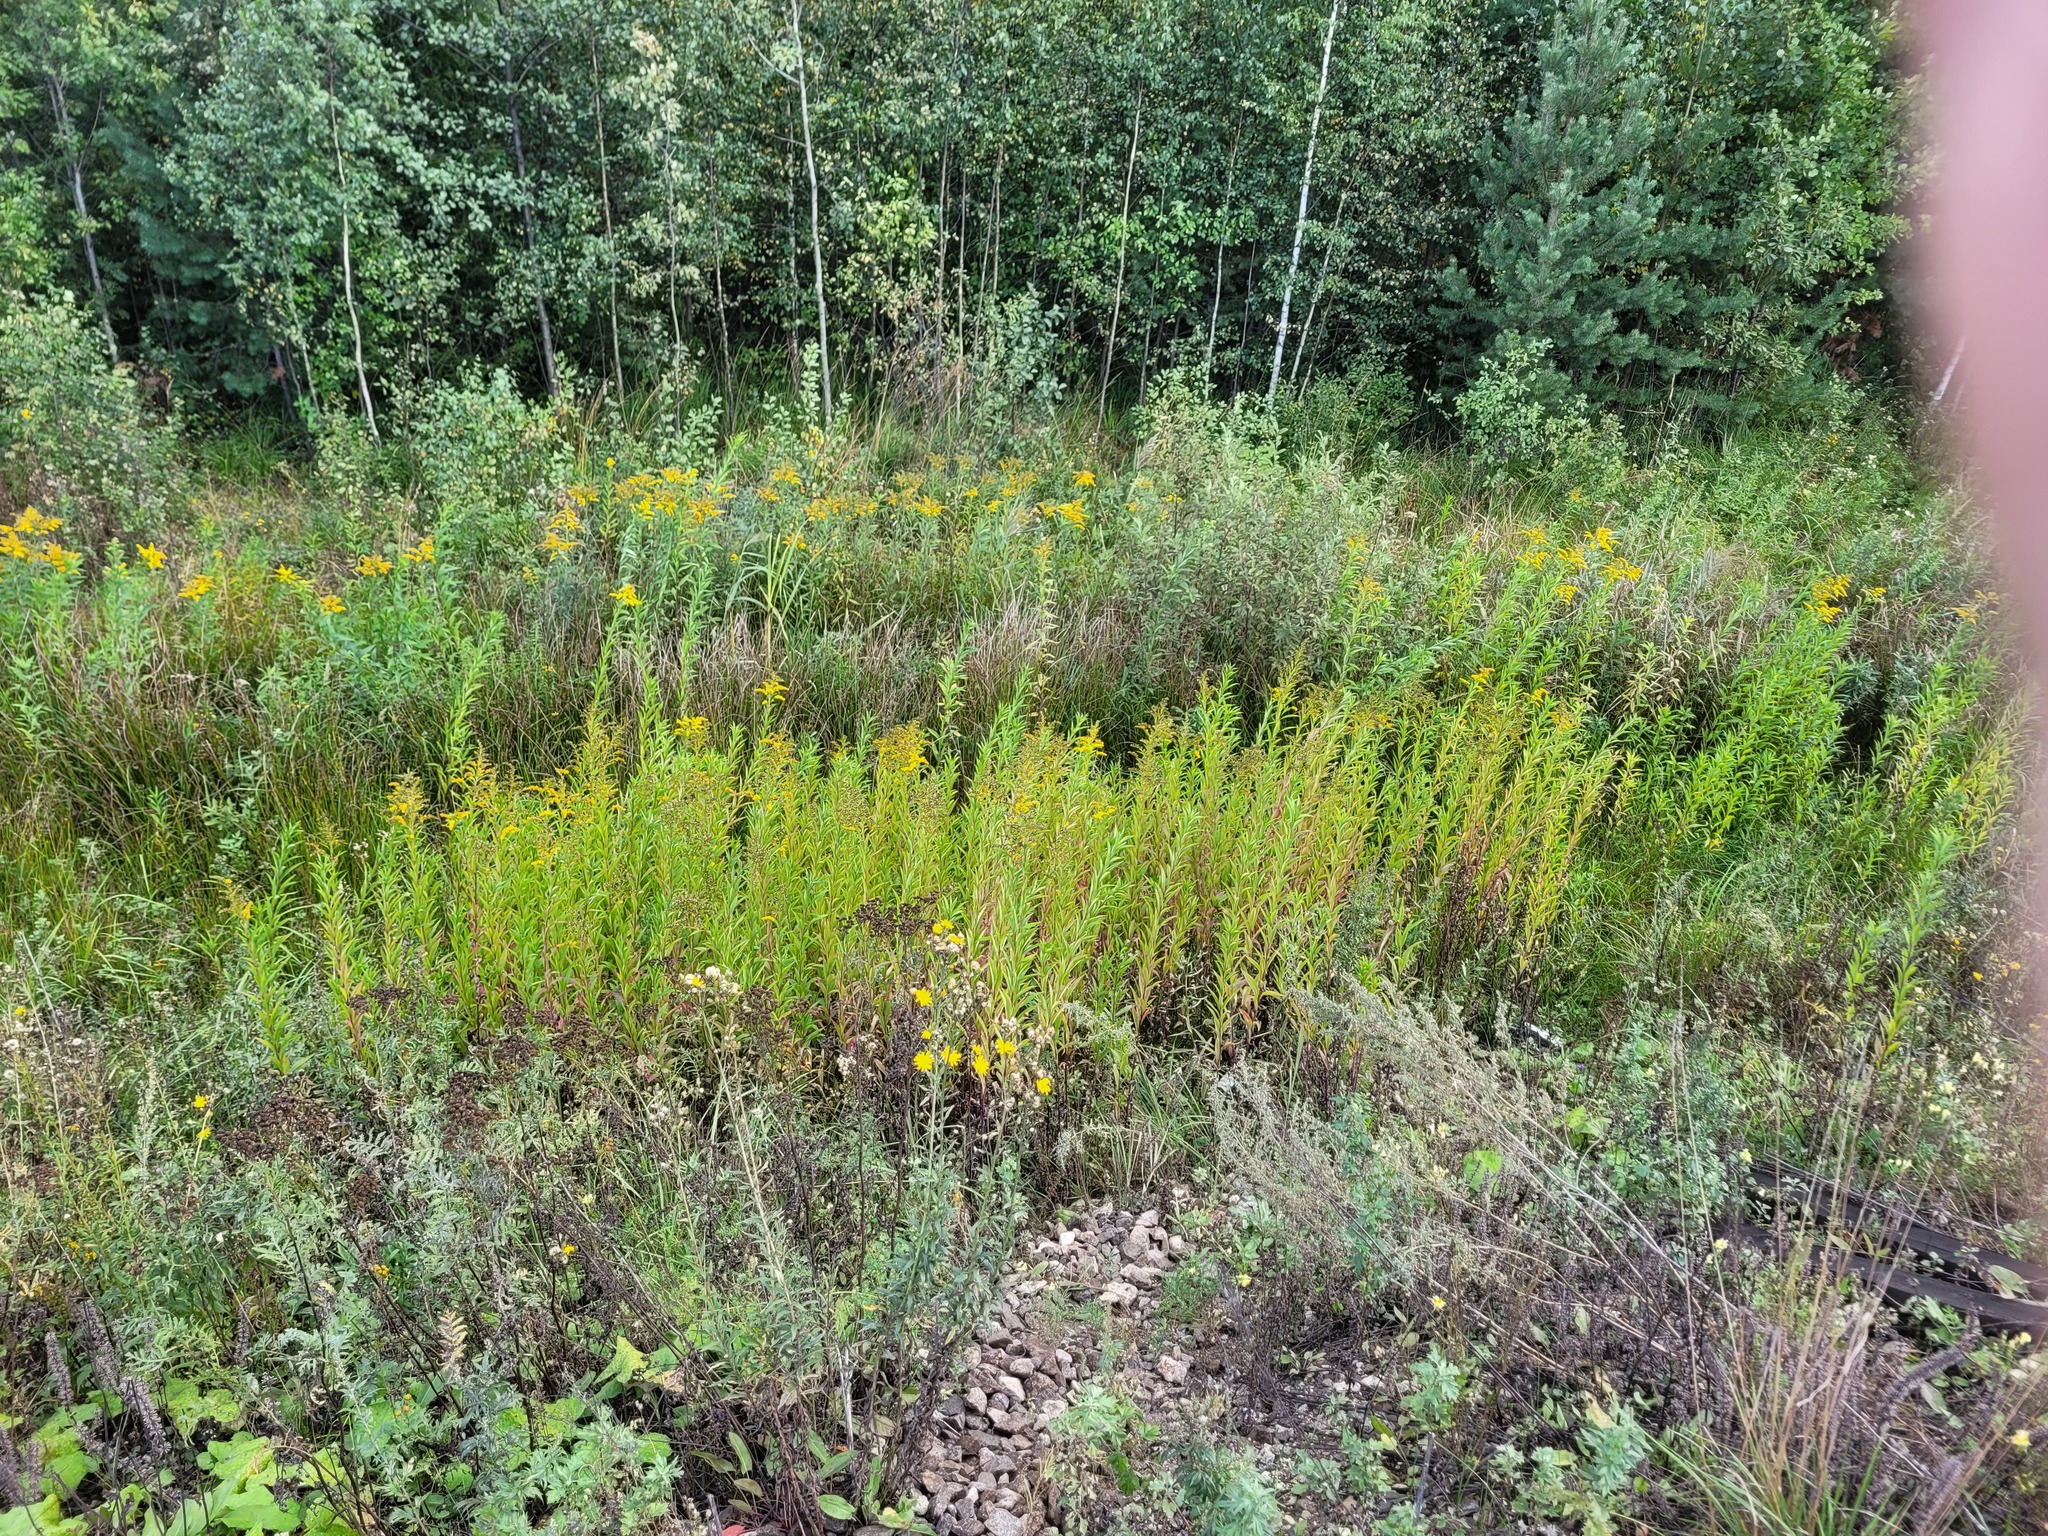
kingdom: Plantae
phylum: Tracheophyta
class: Magnoliopsida
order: Asterales
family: Asteraceae
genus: Solidago
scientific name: Solidago gigantea
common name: Giant goldenrod
